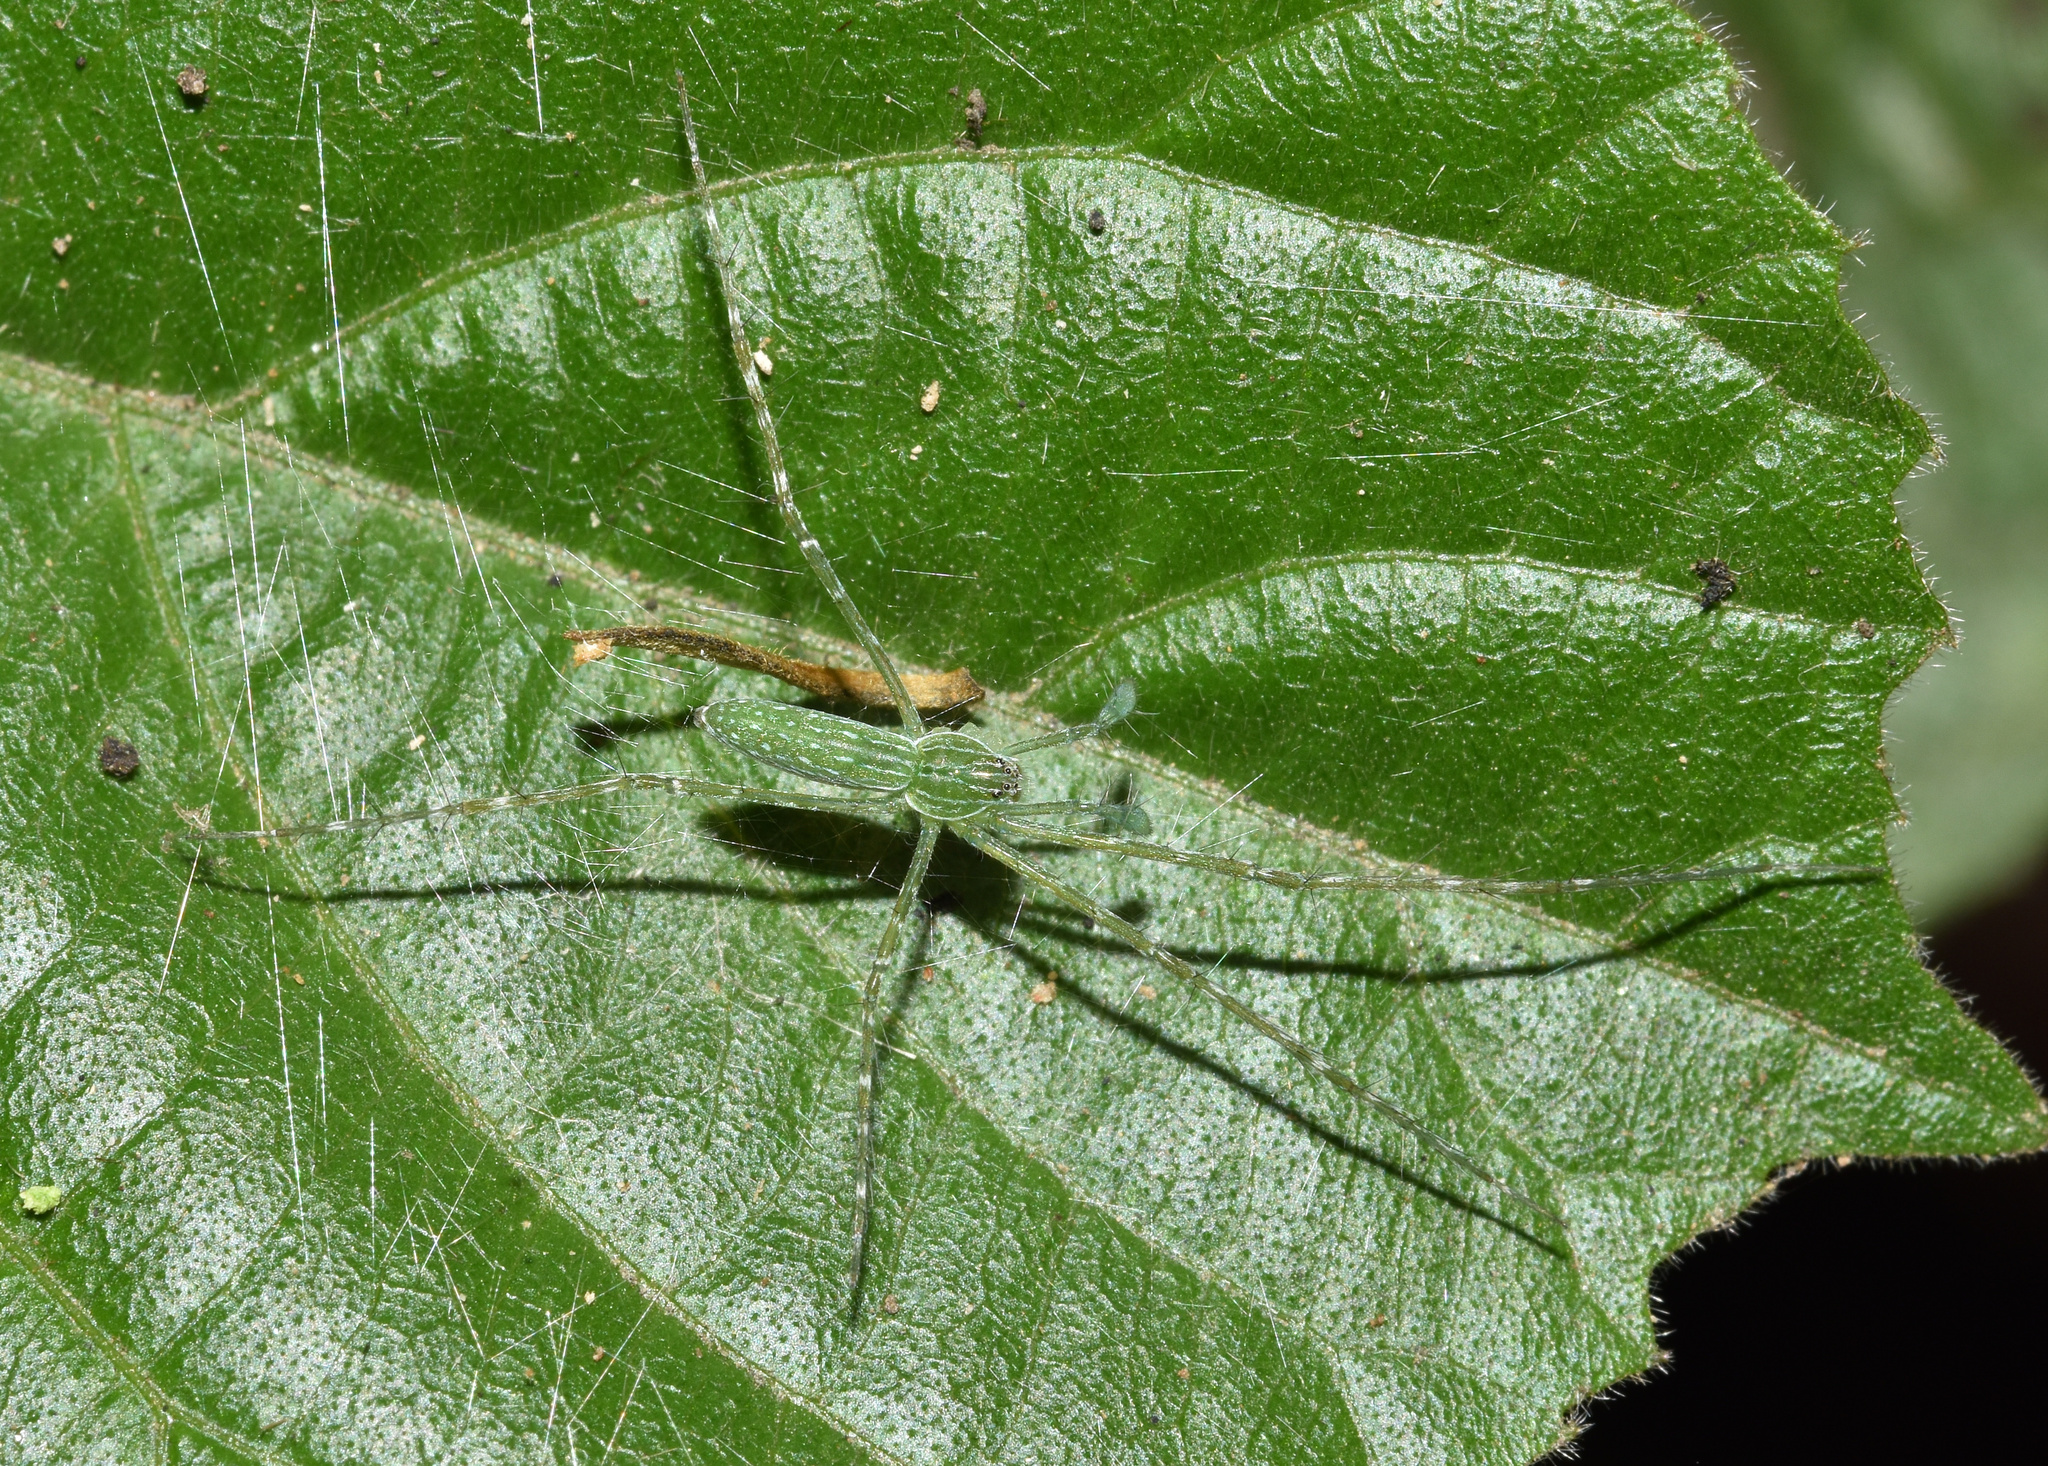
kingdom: Animalia
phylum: Arthropoda
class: Arachnida
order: Araneae
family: Pisauridae
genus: Hygropoda
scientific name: Hygropoda tangana
